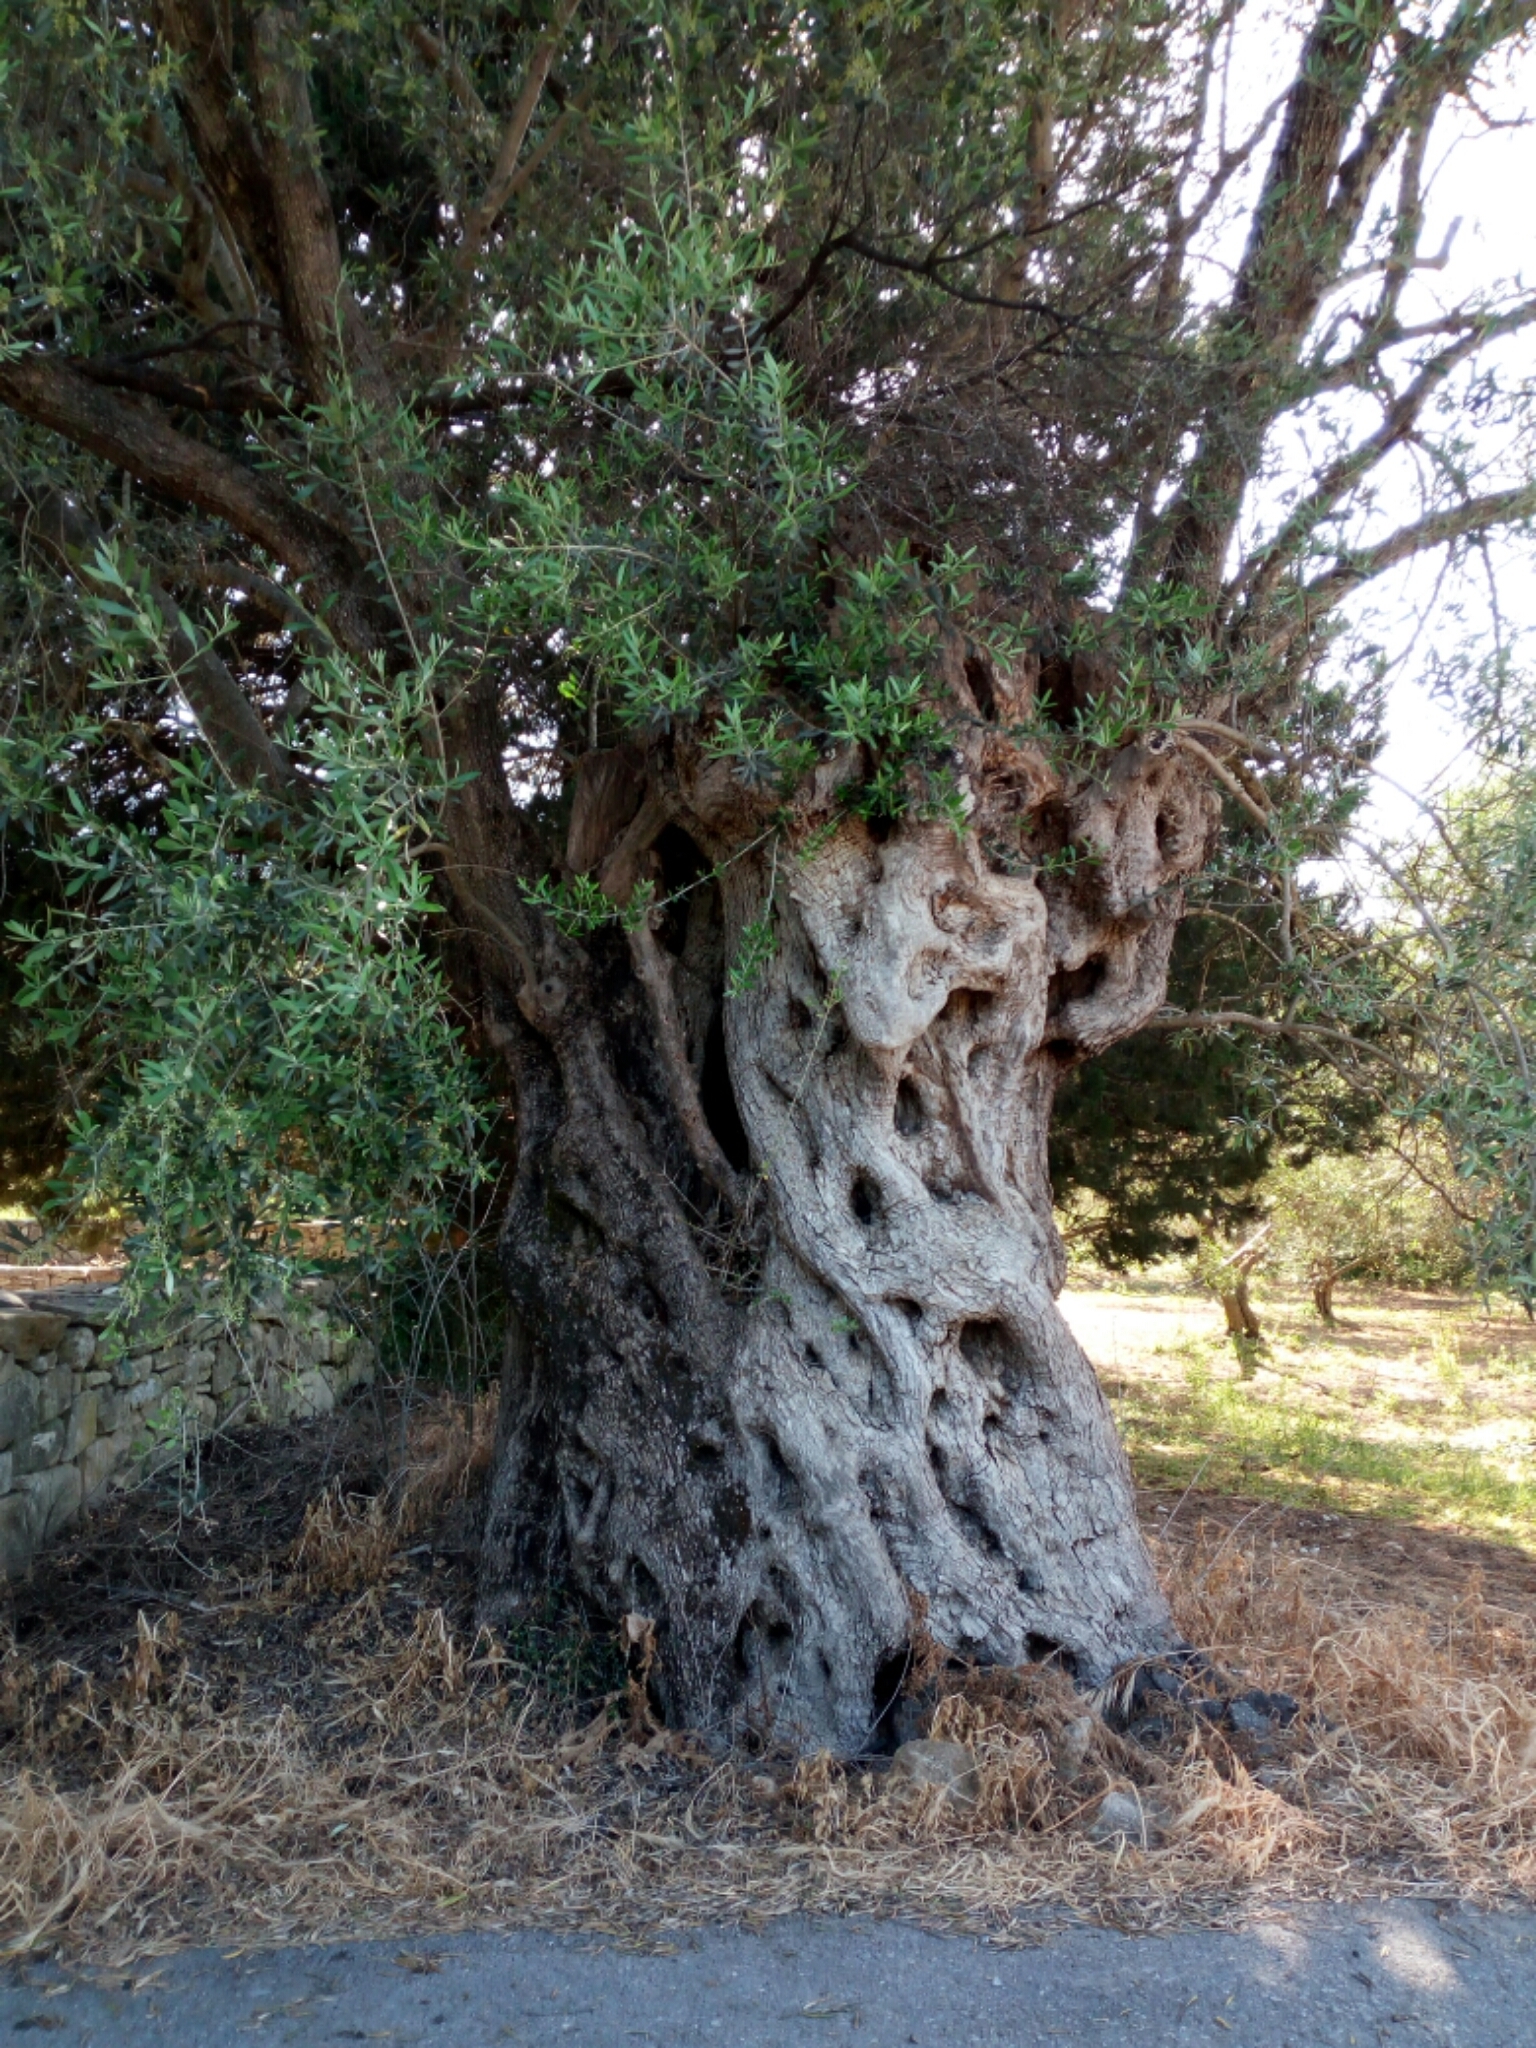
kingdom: Plantae
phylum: Tracheophyta
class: Magnoliopsida
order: Lamiales
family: Oleaceae
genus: Olea
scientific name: Olea europaea
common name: Olive
